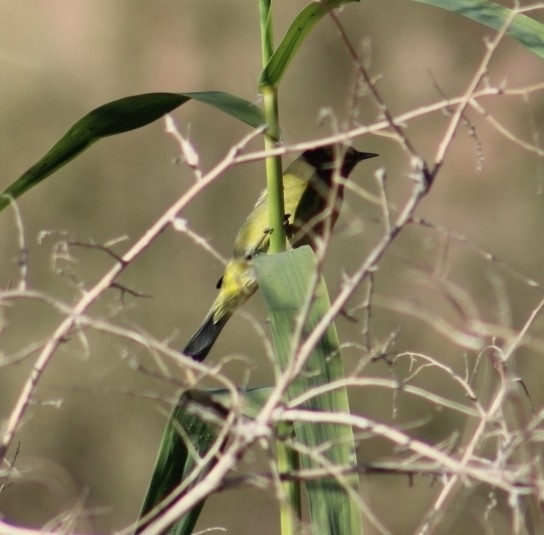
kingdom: Animalia
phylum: Chordata
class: Aves
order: Passeriformes
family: Parulidae
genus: Leiothlypis
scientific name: Leiothlypis celata
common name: Orange-crowned warbler
